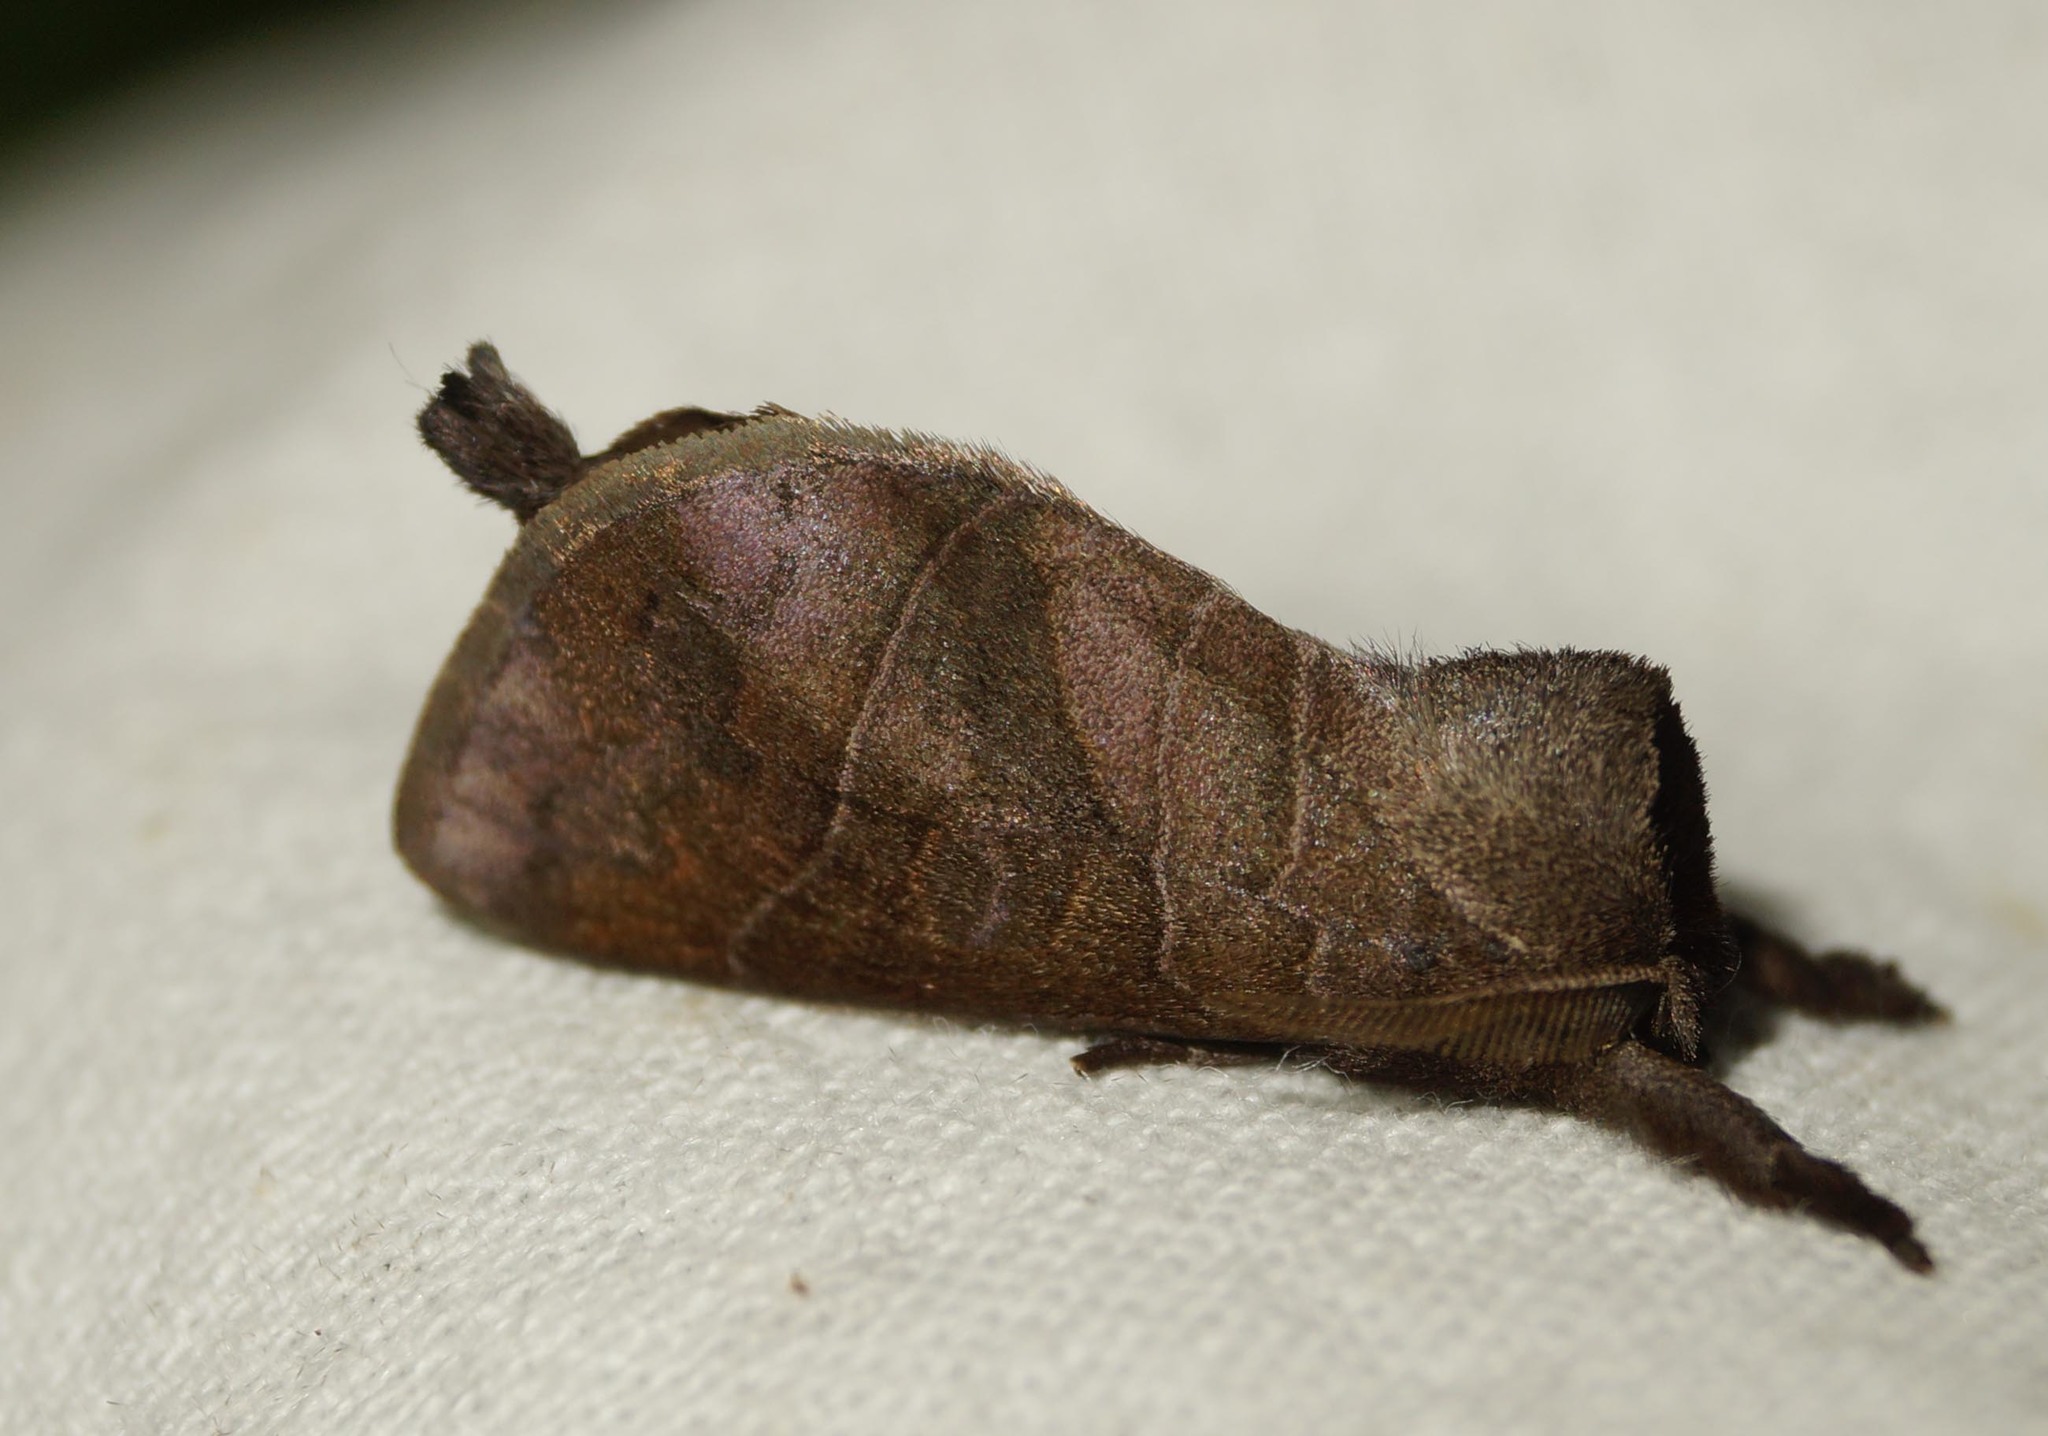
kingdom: Animalia
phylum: Arthropoda
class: Insecta
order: Lepidoptera
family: Notodontidae
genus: Clostera
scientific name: Clostera anastomosis
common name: Poplar tip moth
